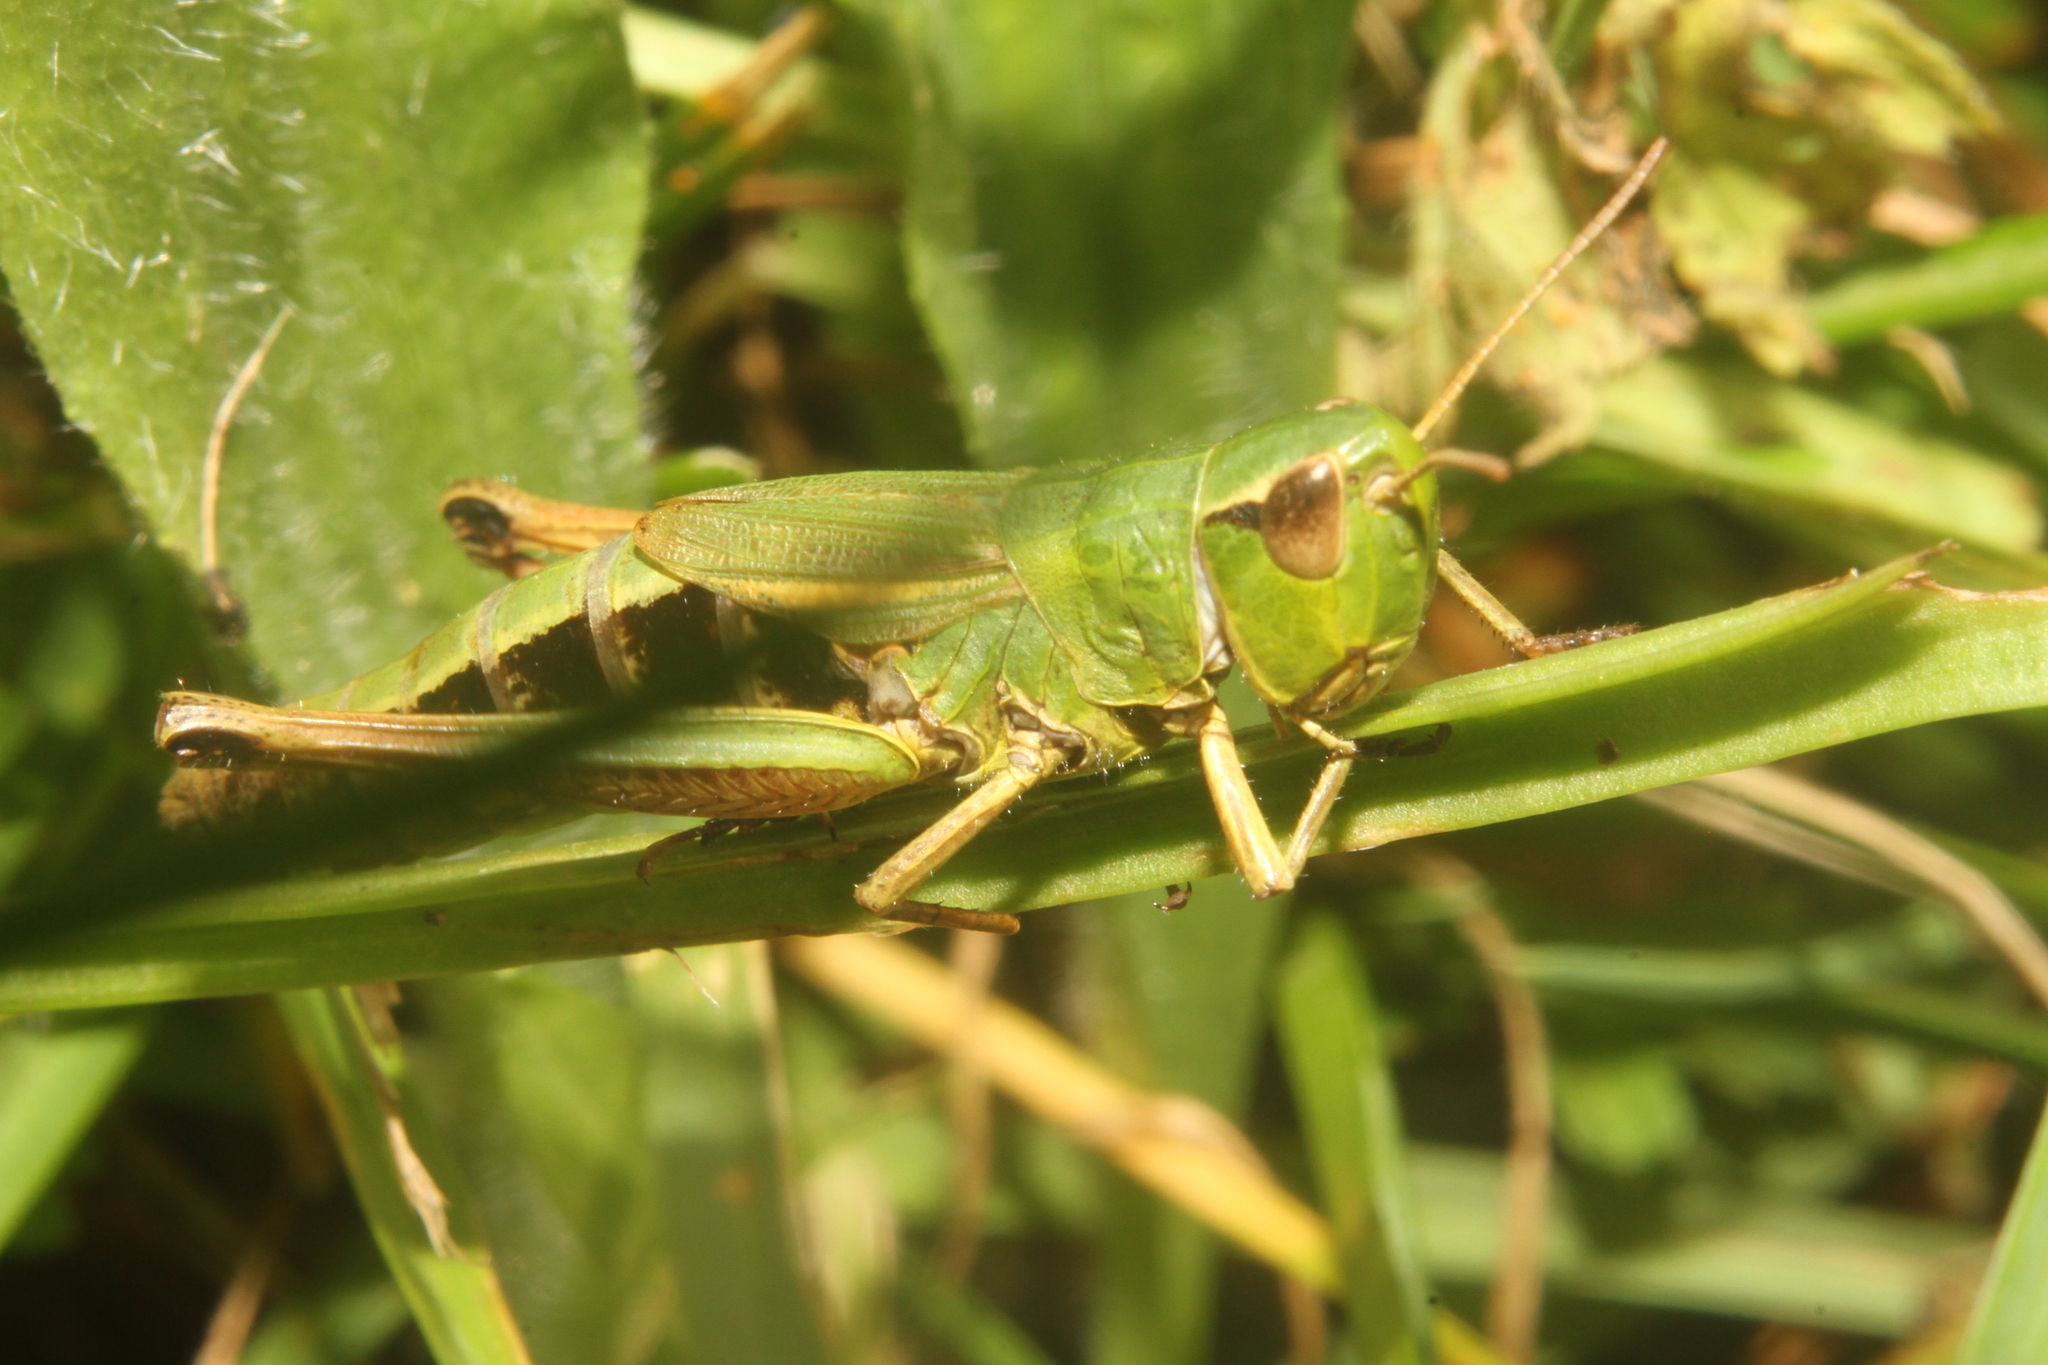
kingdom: Animalia
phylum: Arthropoda
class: Insecta
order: Orthoptera
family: Acrididae
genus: Pseudochorthippus
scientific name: Pseudochorthippus parallelus
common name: Meadow grasshopper
